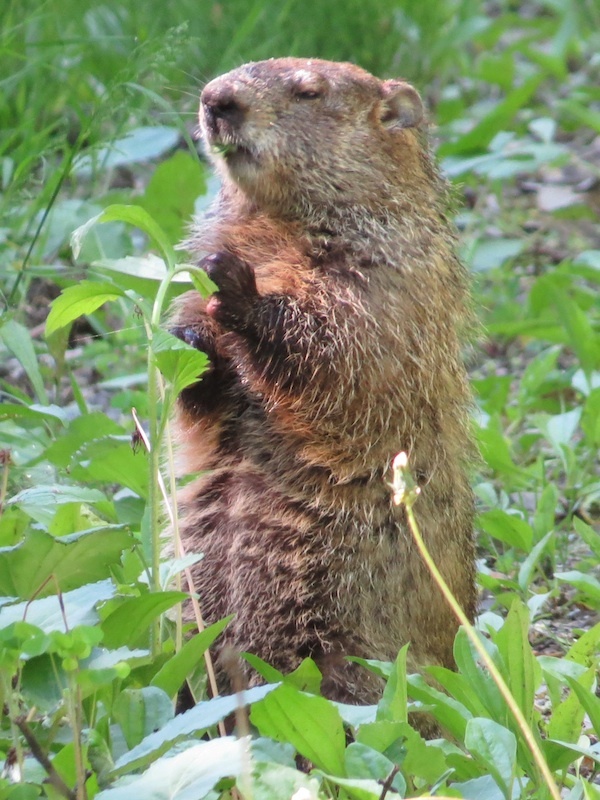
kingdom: Animalia
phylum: Chordata
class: Mammalia
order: Rodentia
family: Sciuridae
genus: Marmota
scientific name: Marmota monax
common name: Groundhog
